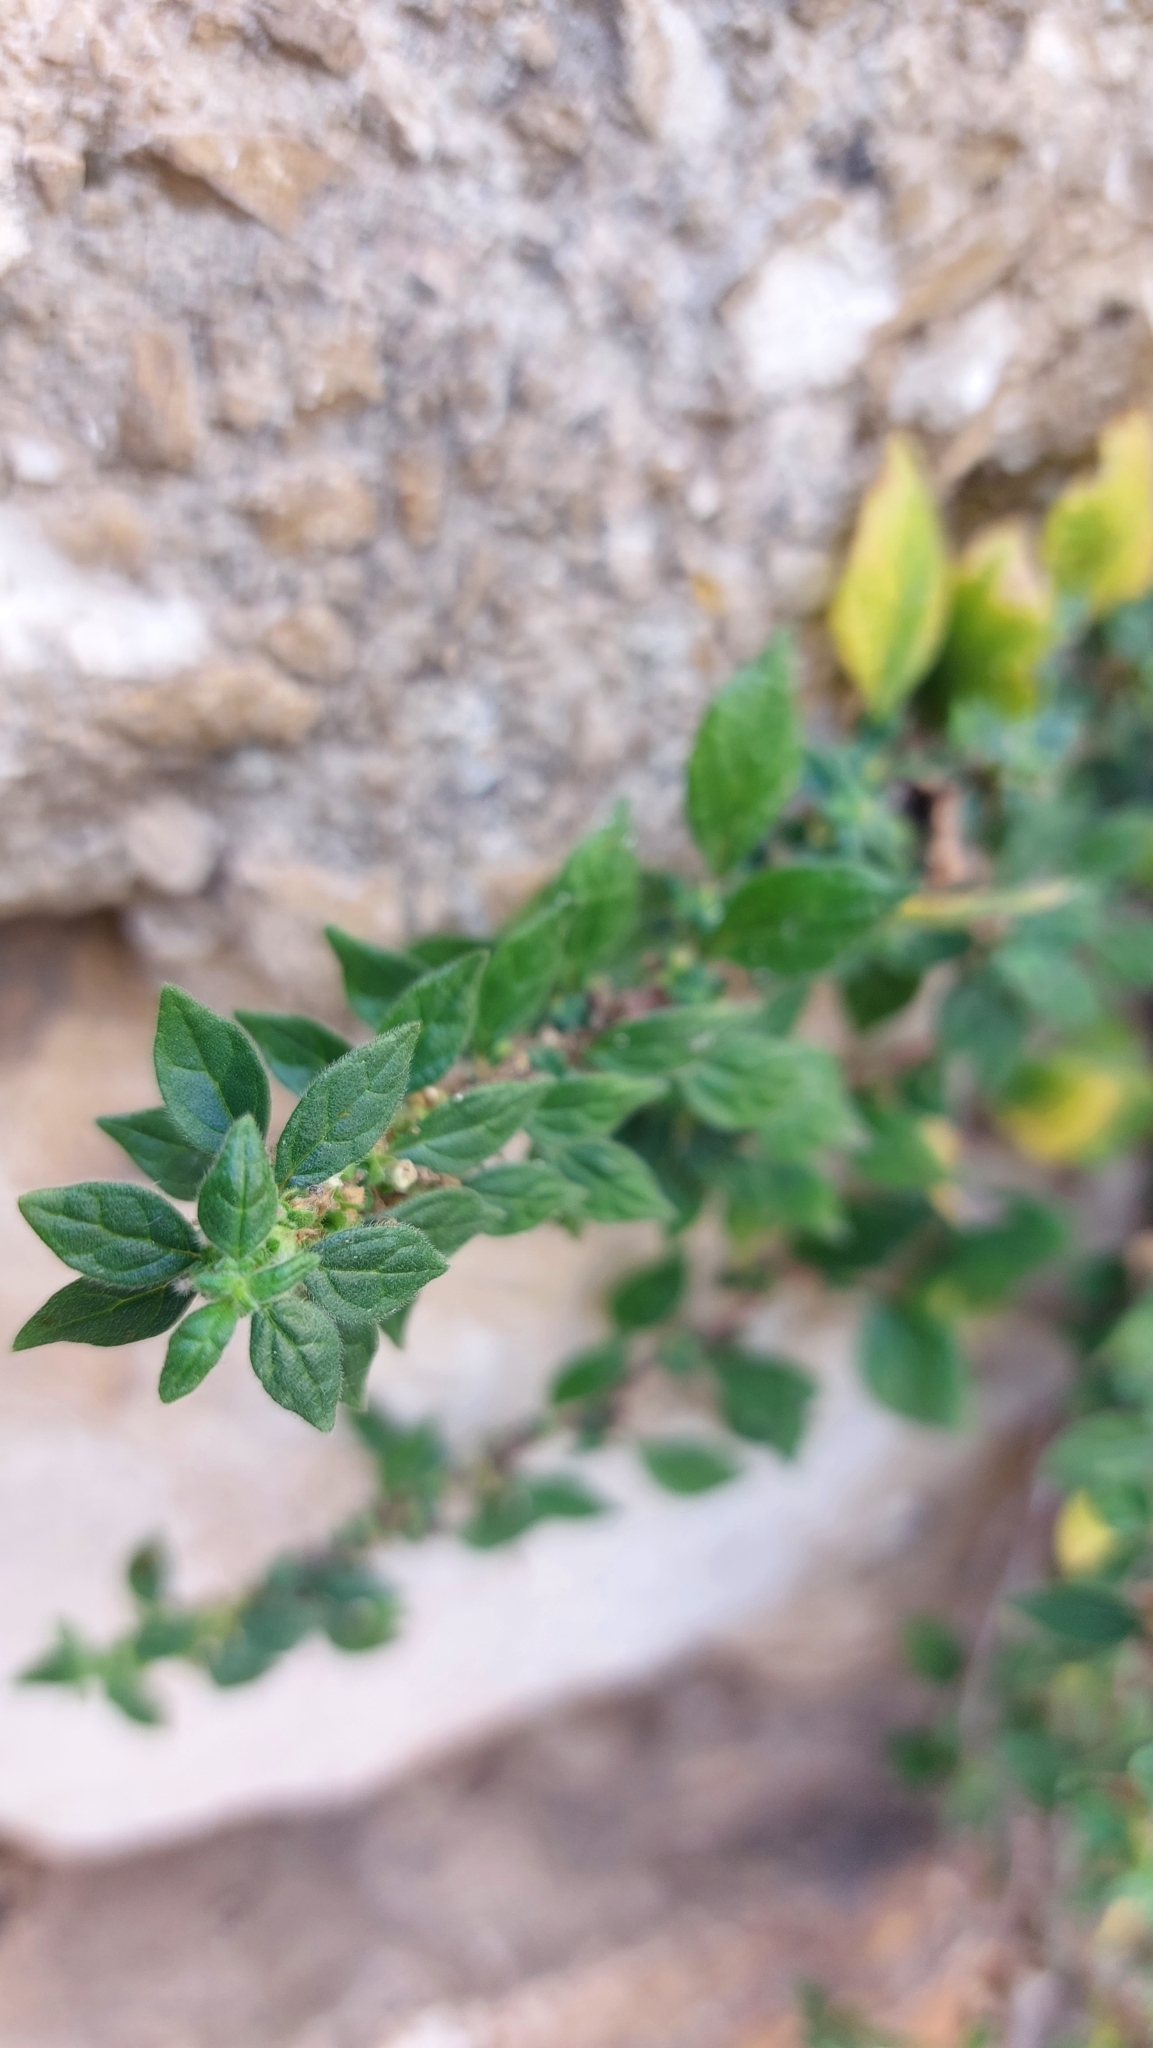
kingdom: Plantae
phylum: Tracheophyta
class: Magnoliopsida
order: Rosales
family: Urticaceae
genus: Parietaria
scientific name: Parietaria judaica
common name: Pellitory-of-the-wall
